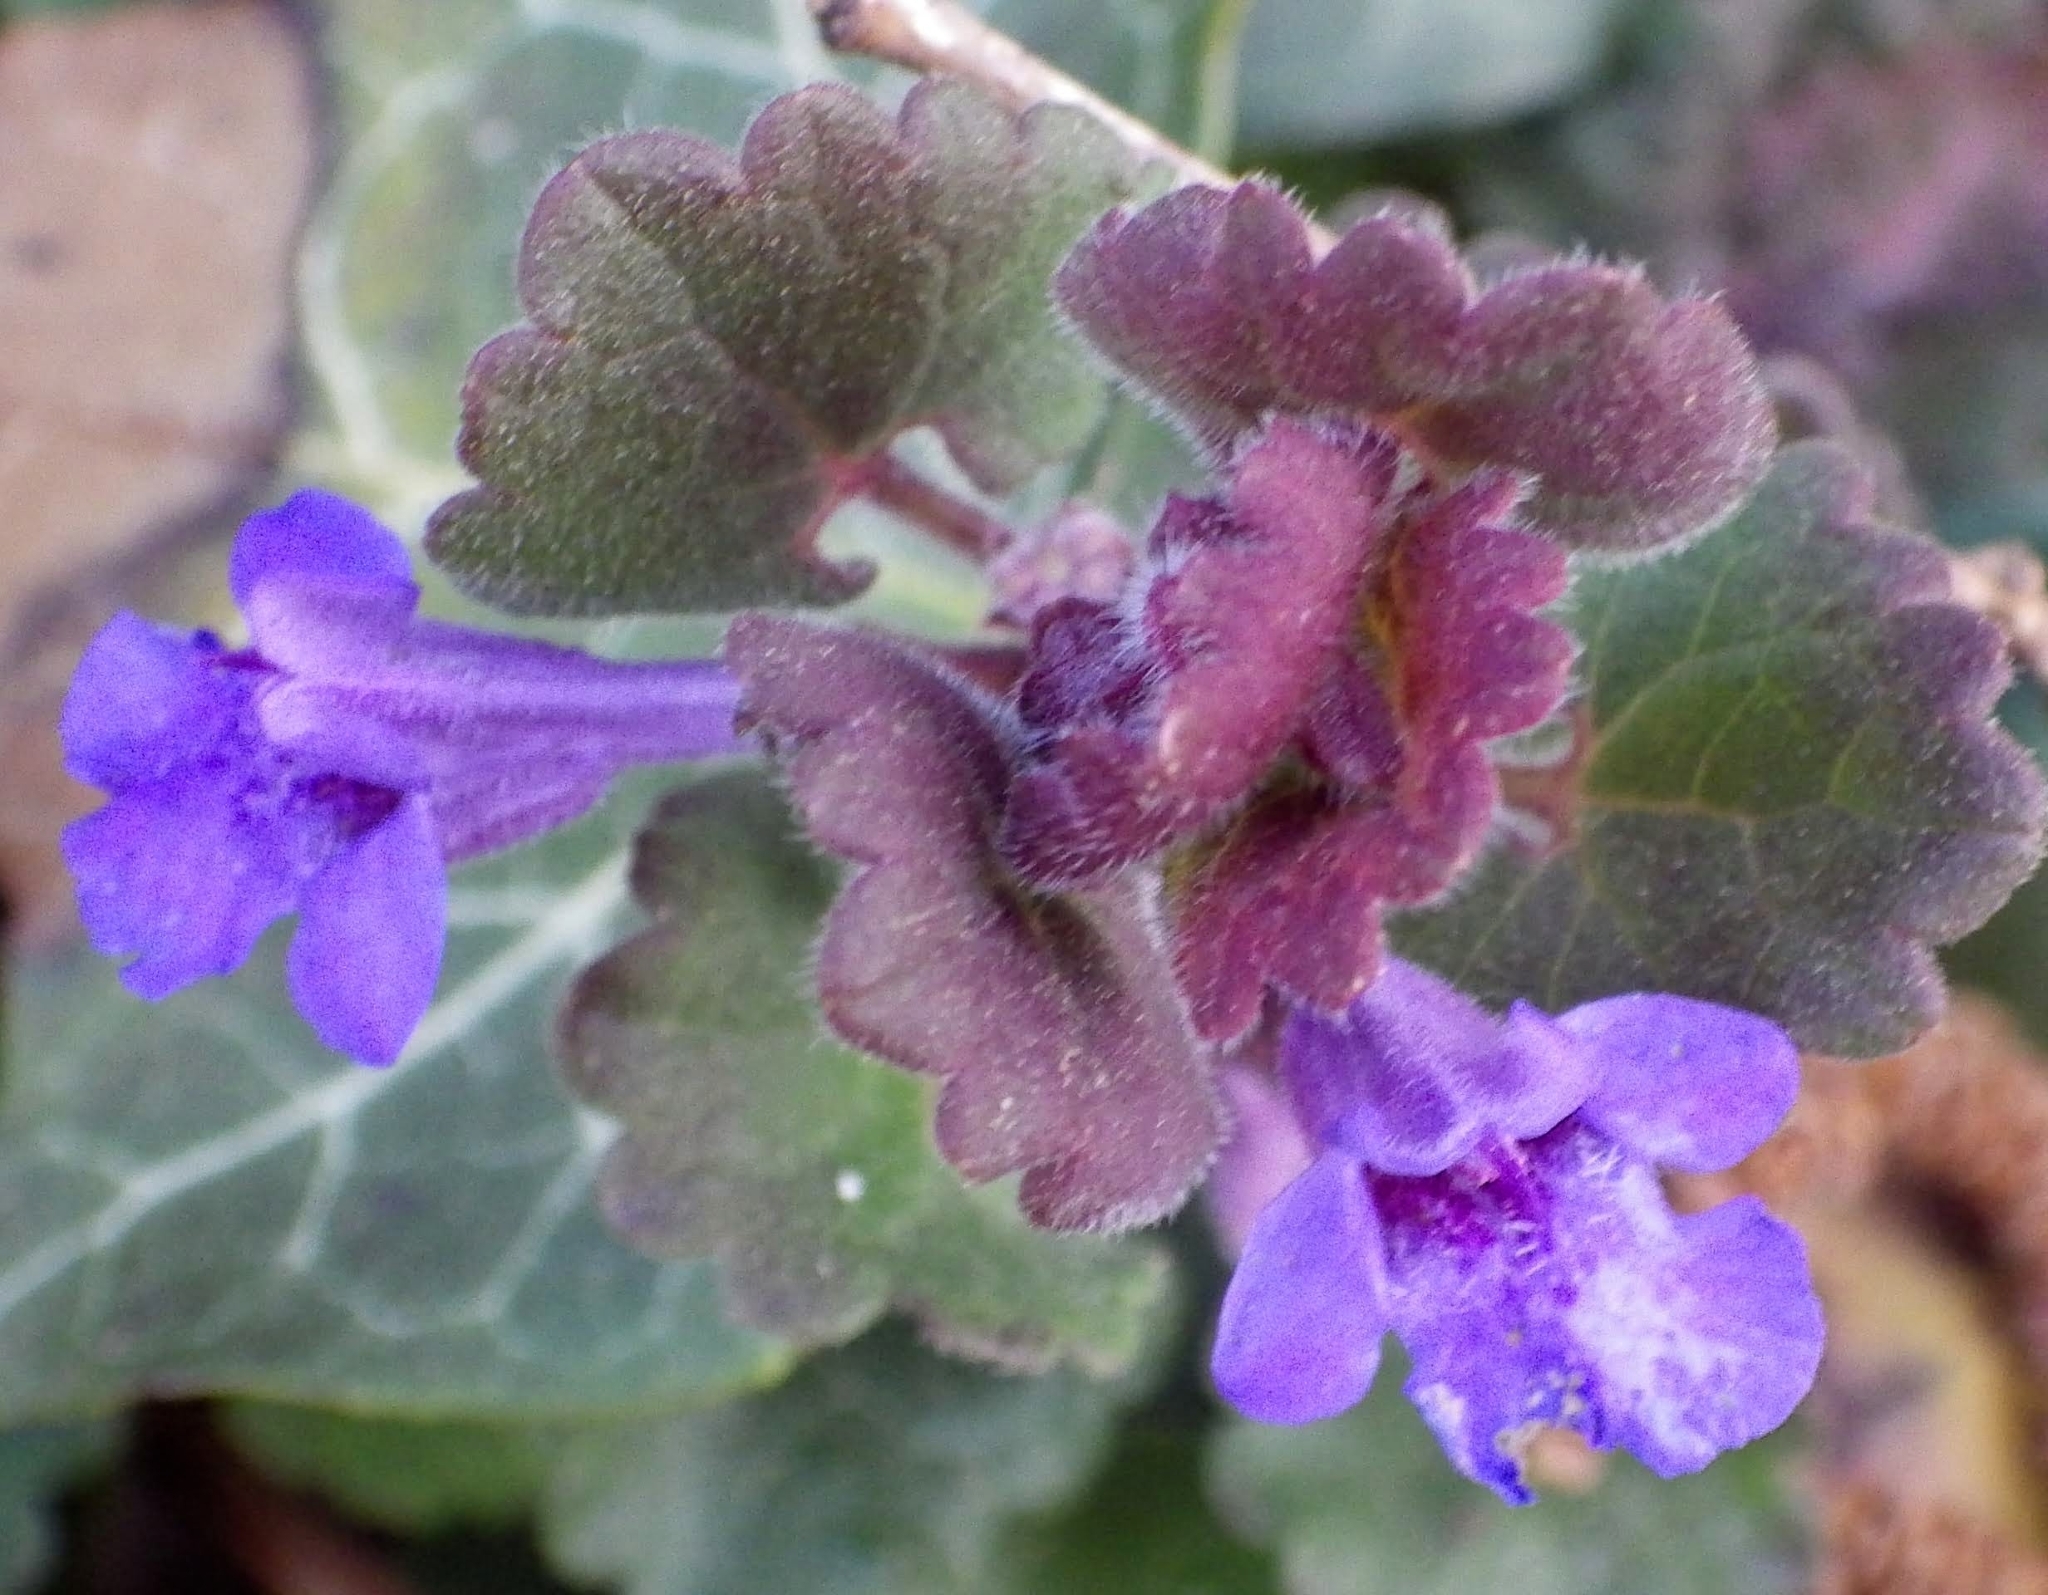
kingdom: Plantae
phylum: Tracheophyta
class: Magnoliopsida
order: Lamiales
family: Lamiaceae
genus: Glechoma
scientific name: Glechoma hederacea
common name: Ground ivy
